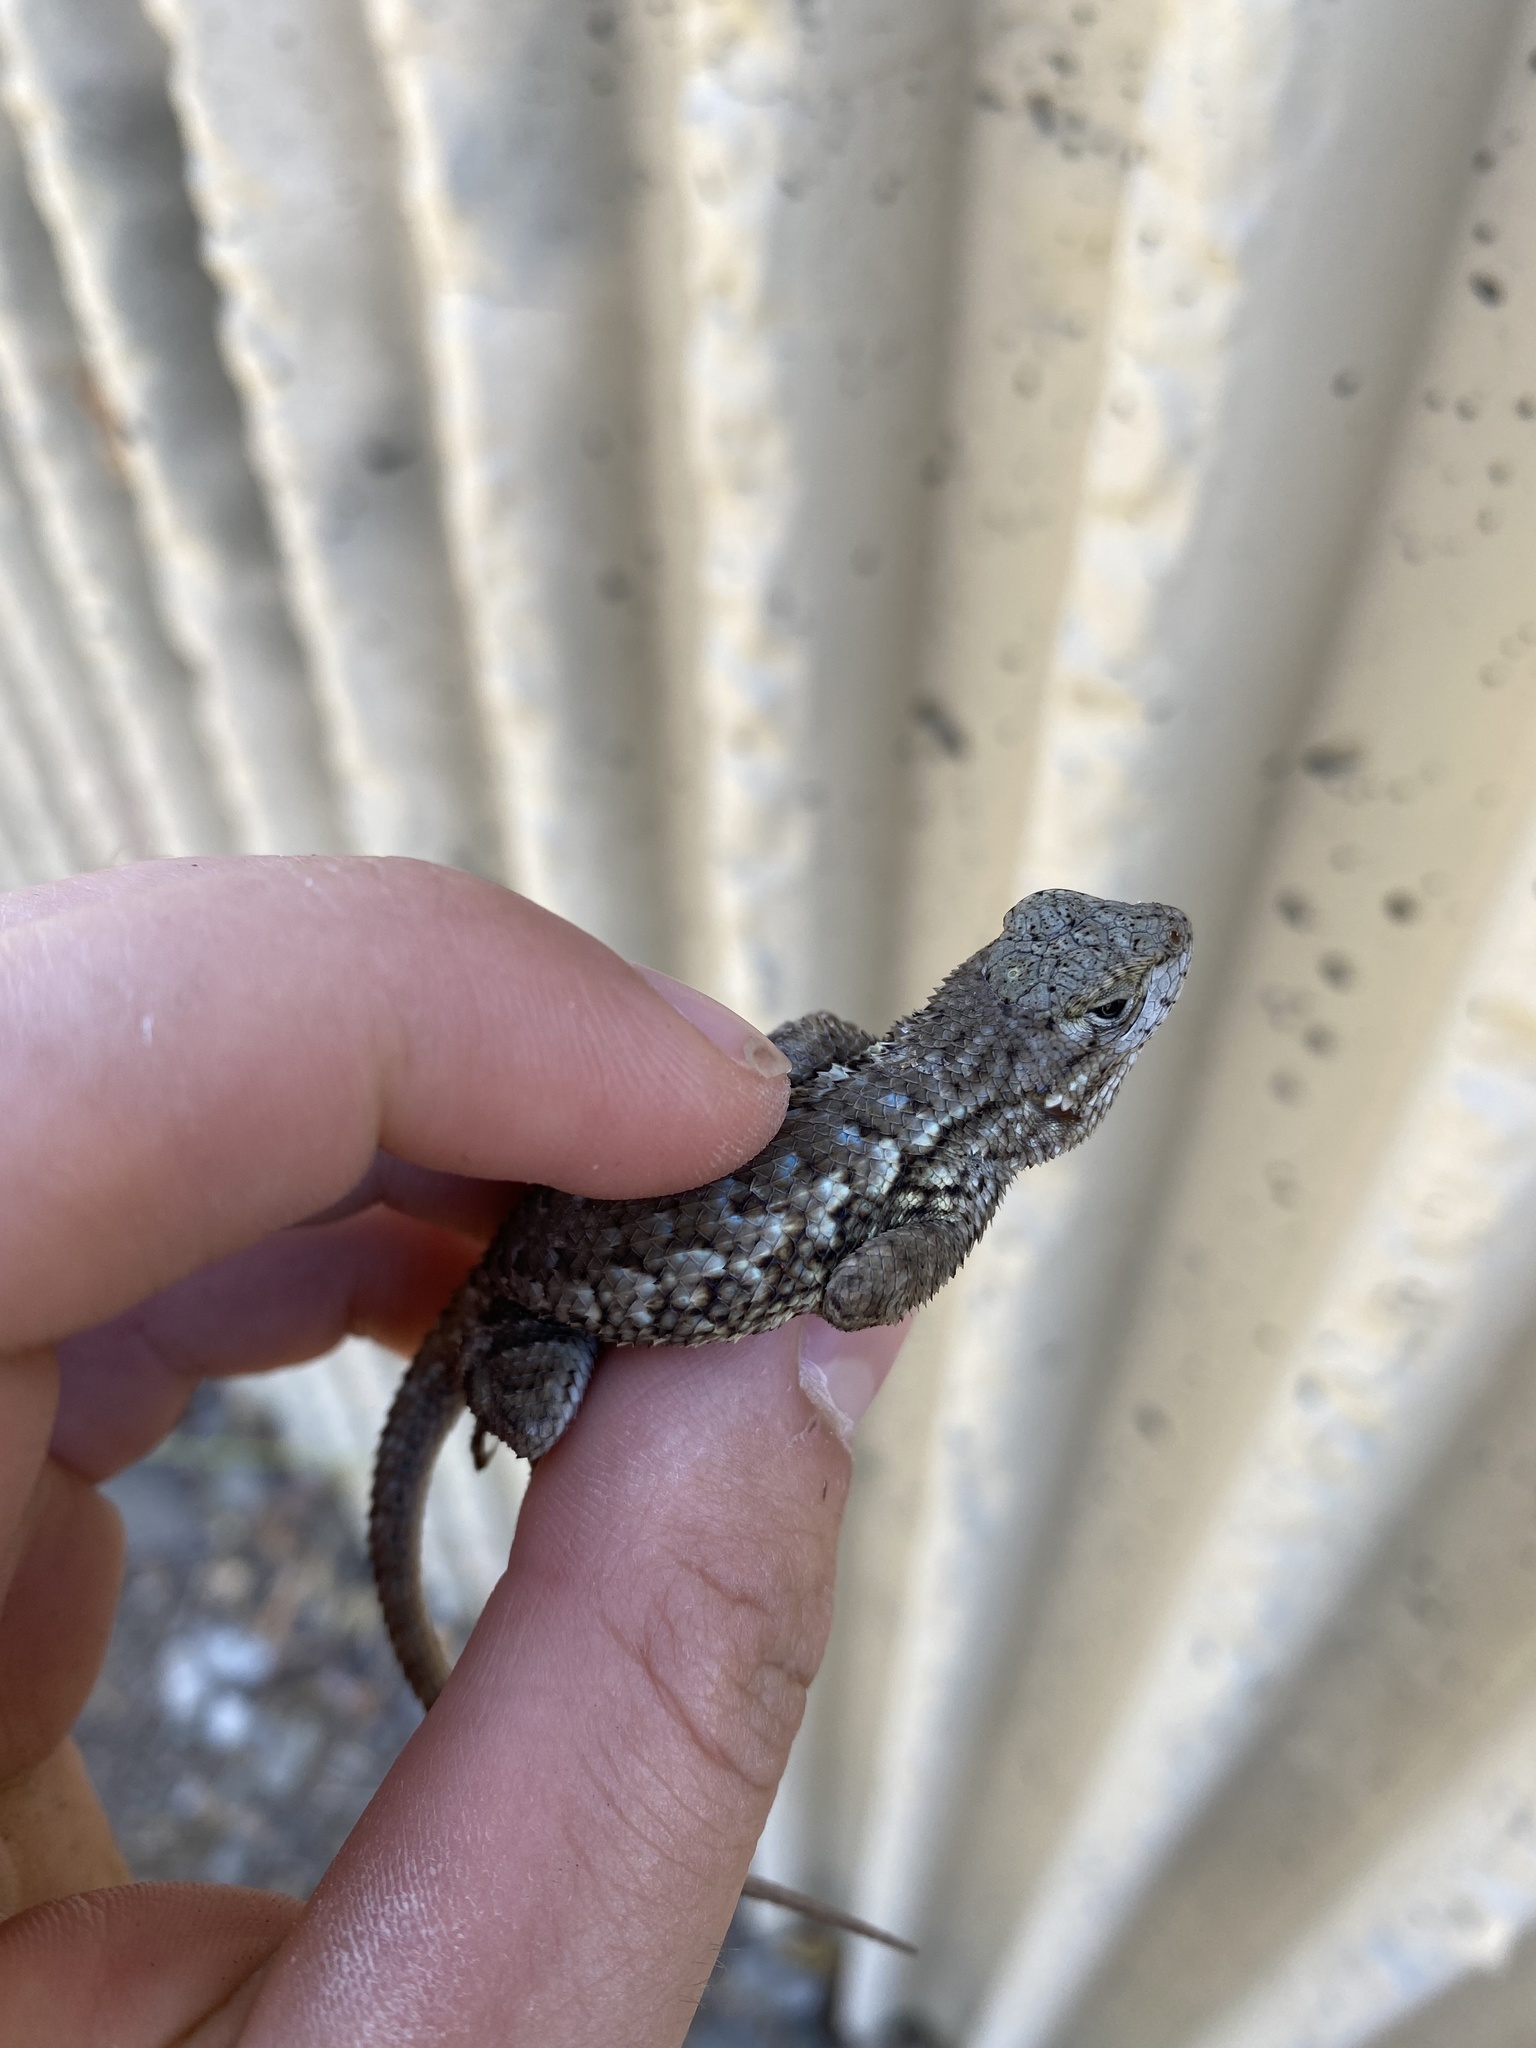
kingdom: Animalia
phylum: Chordata
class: Squamata
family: Phrynosomatidae
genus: Sceloporus
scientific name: Sceloporus occidentalis
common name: Western fence lizard
